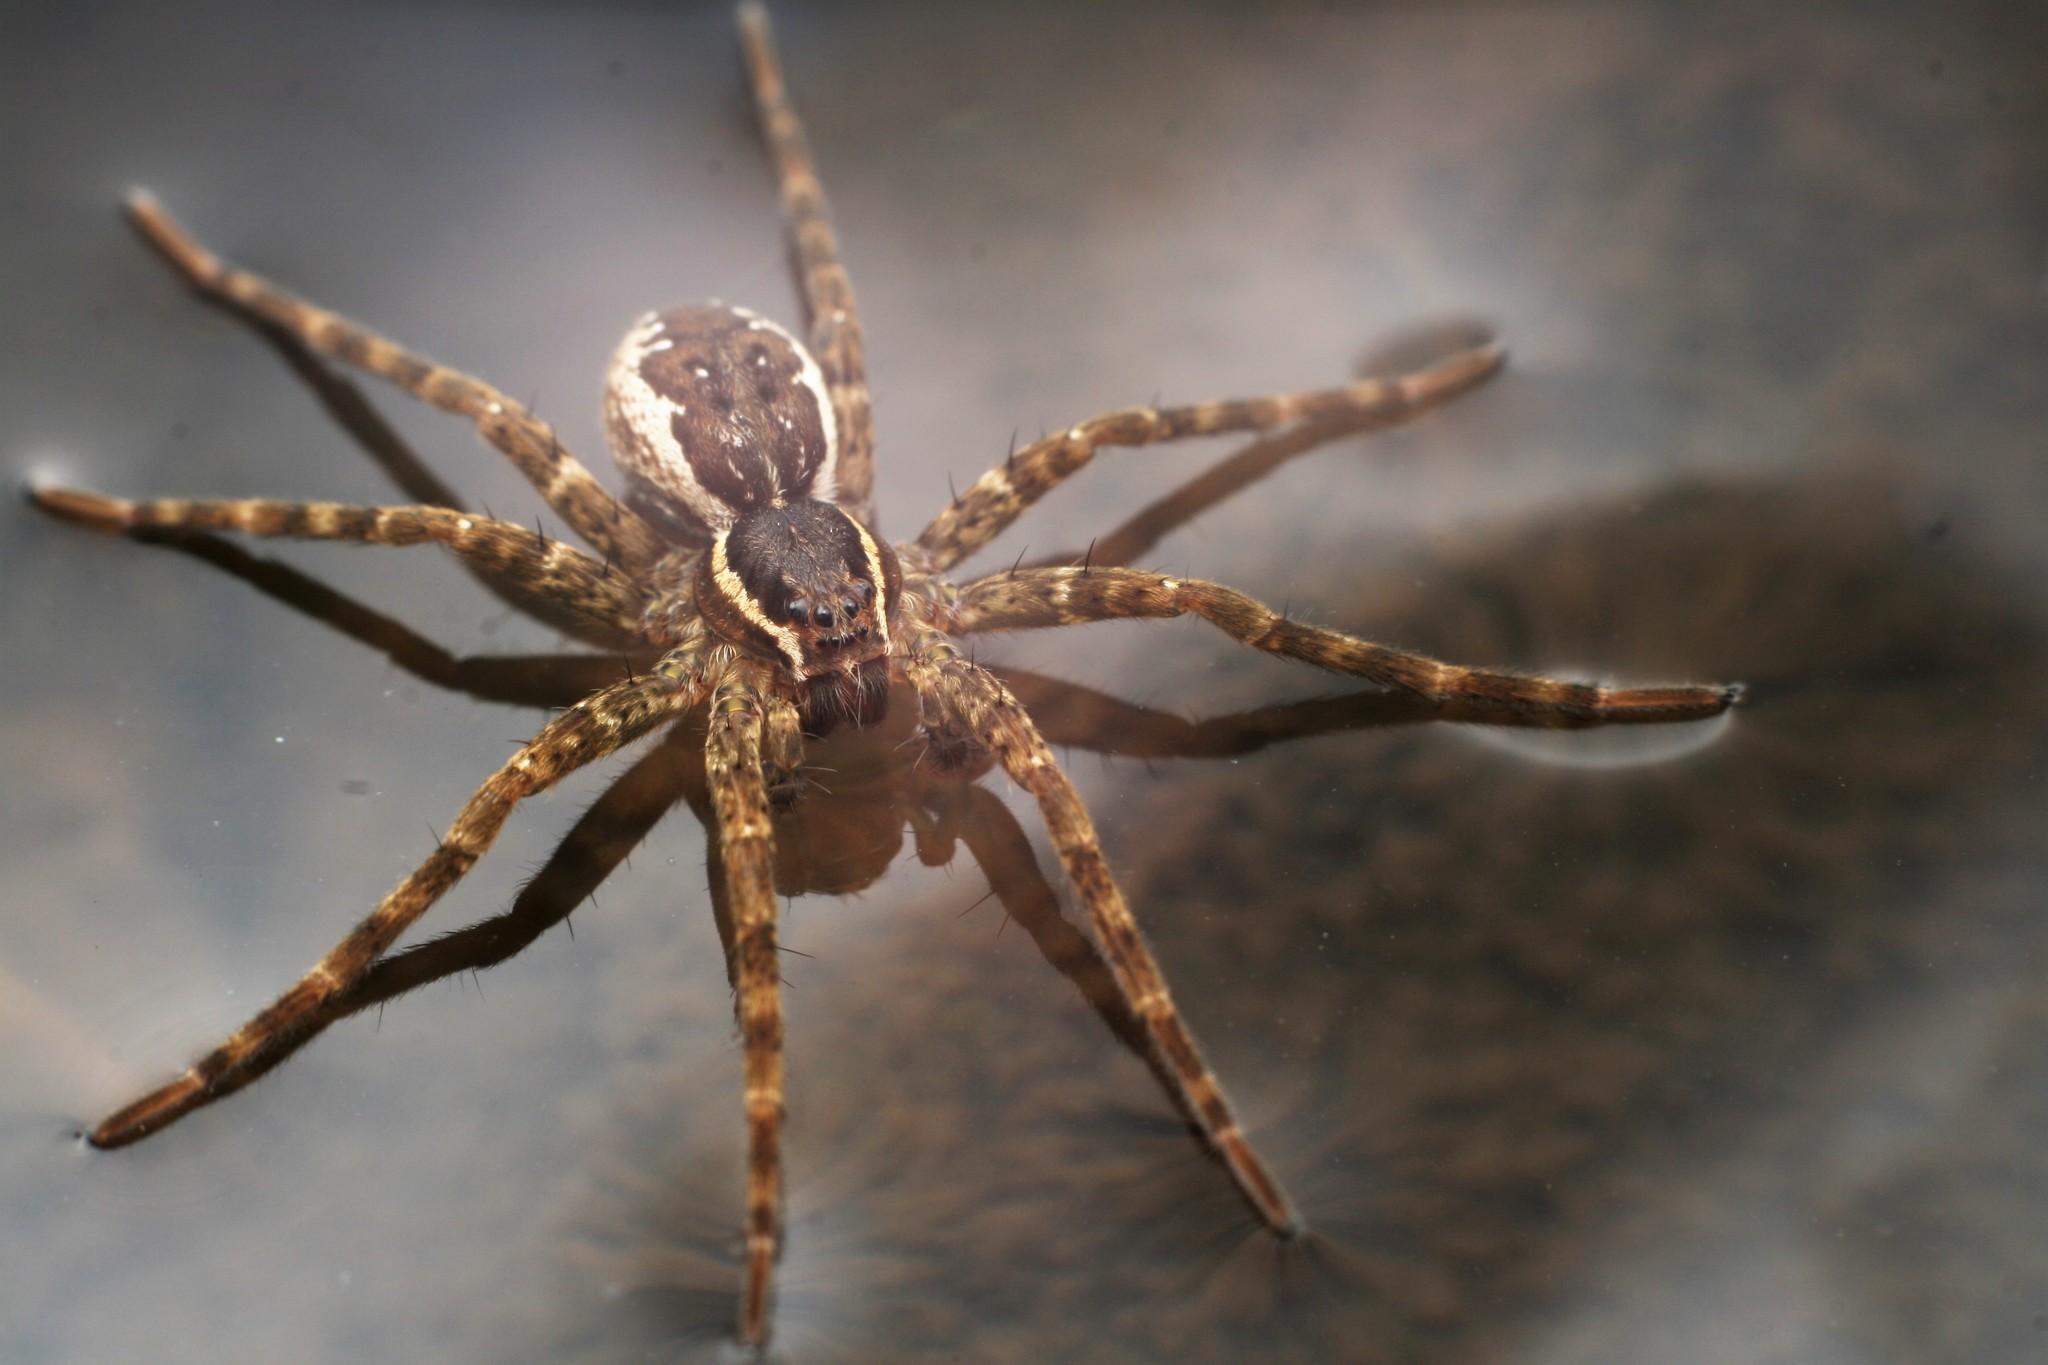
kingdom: Animalia
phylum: Arthropoda
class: Arachnida
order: Araneae
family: Pisauridae
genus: Dolomedes
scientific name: Dolomedes dondalei
